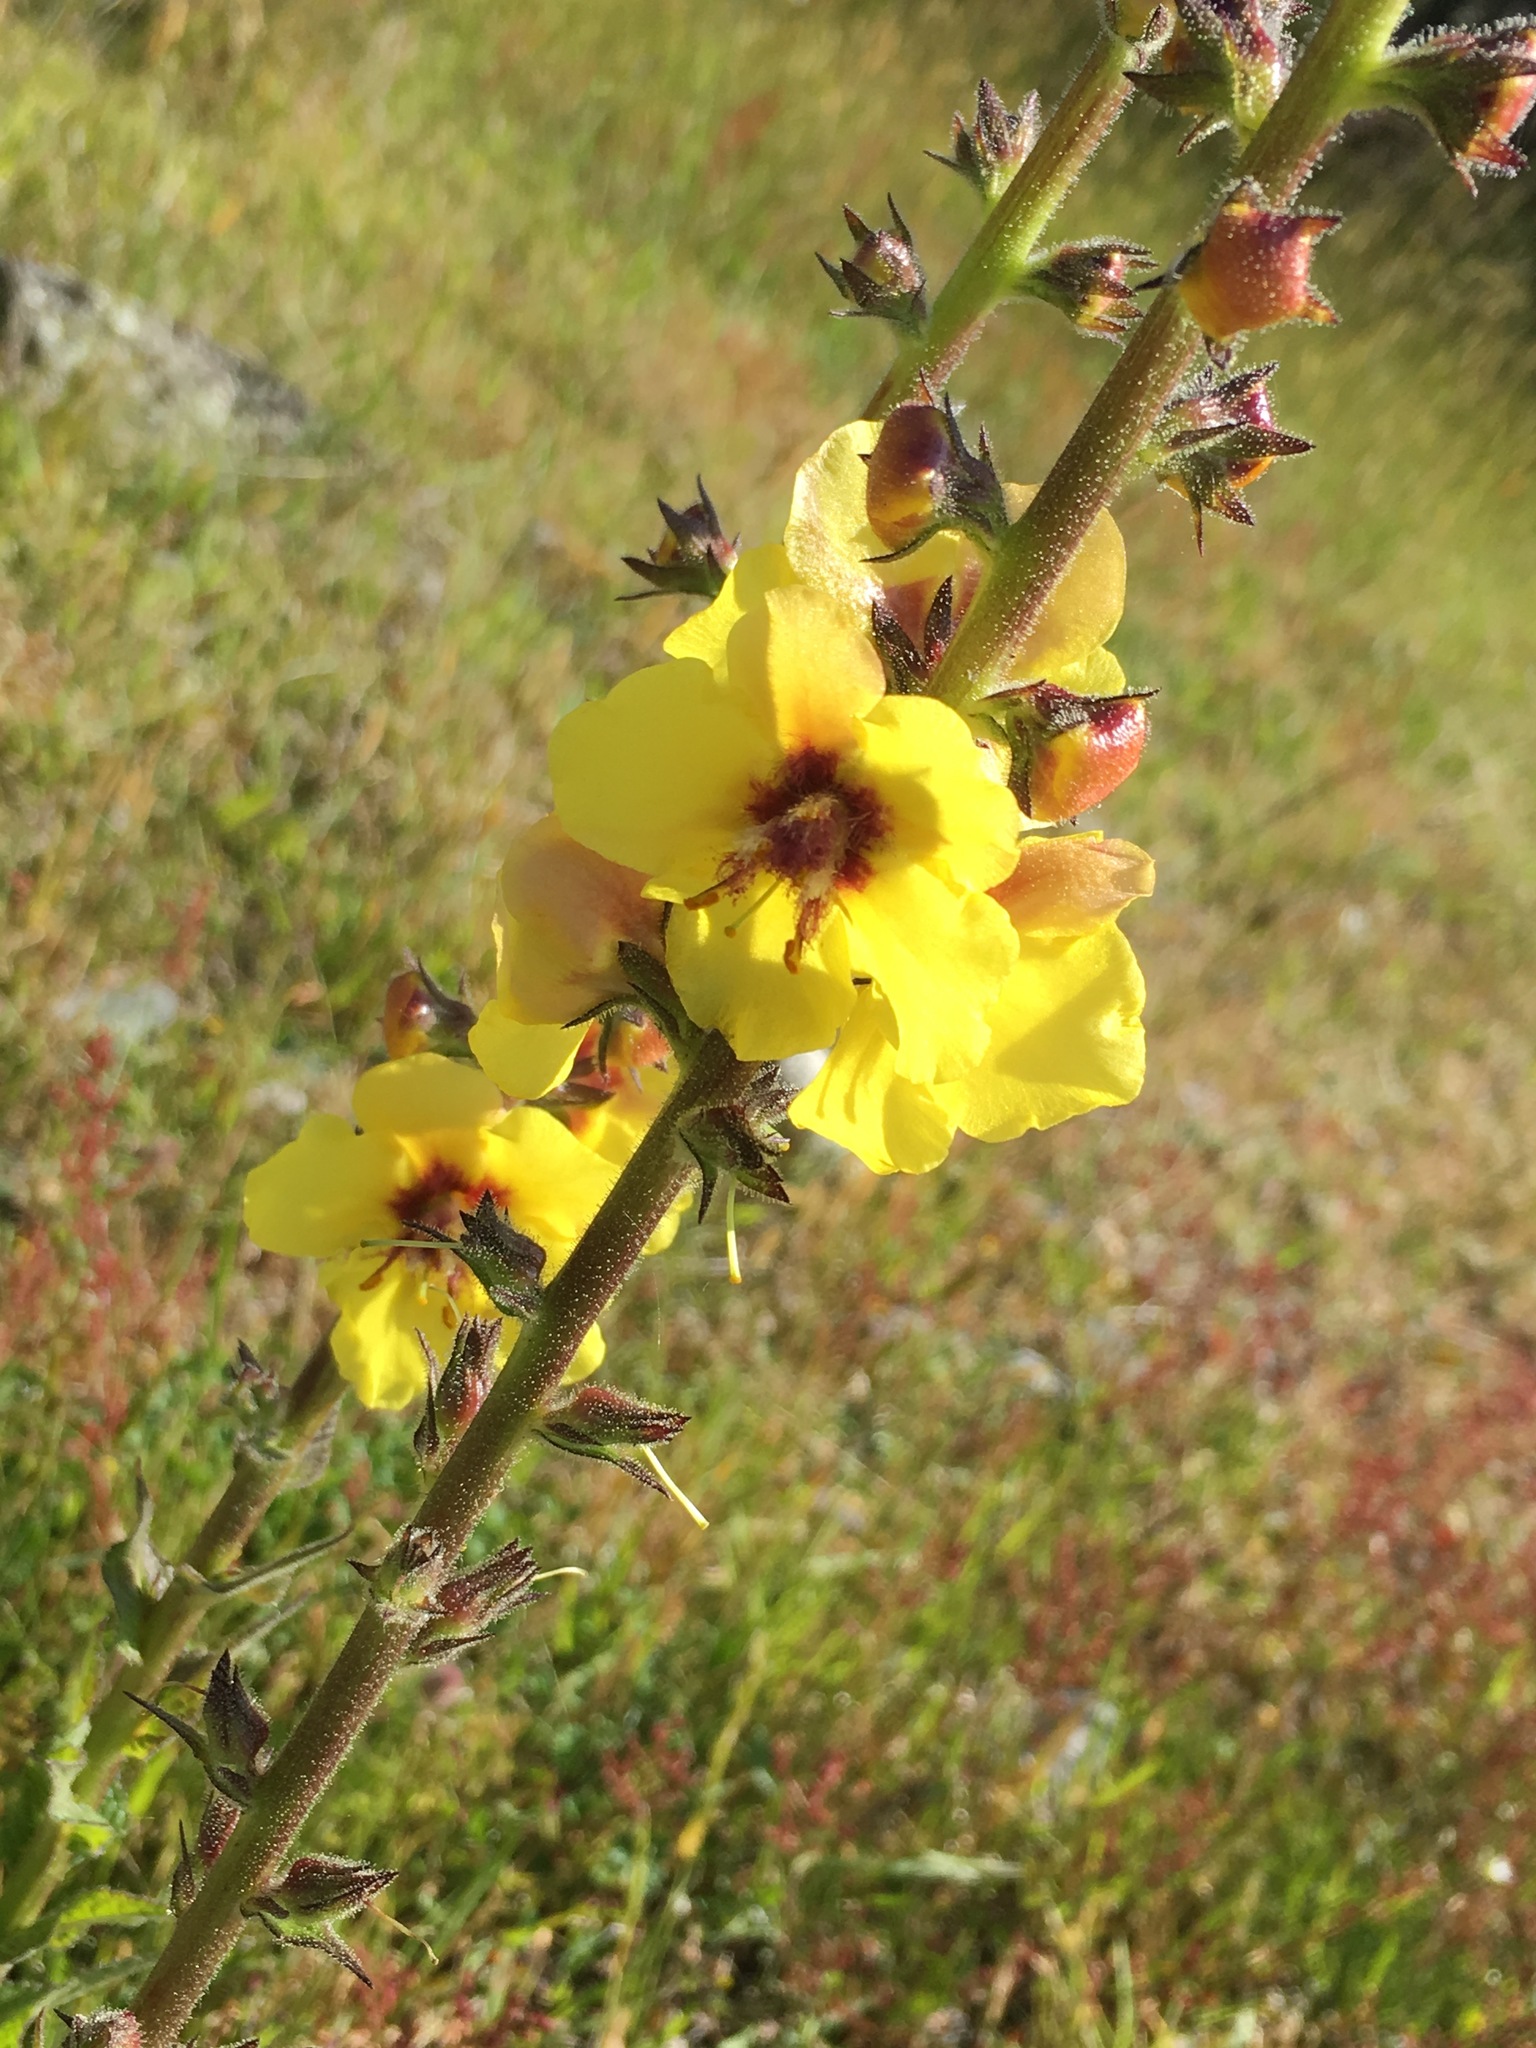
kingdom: Plantae
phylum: Tracheophyta
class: Magnoliopsida
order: Lamiales
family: Scrophulariaceae
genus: Verbascum
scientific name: Verbascum virgatum
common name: Twiggy mullein
